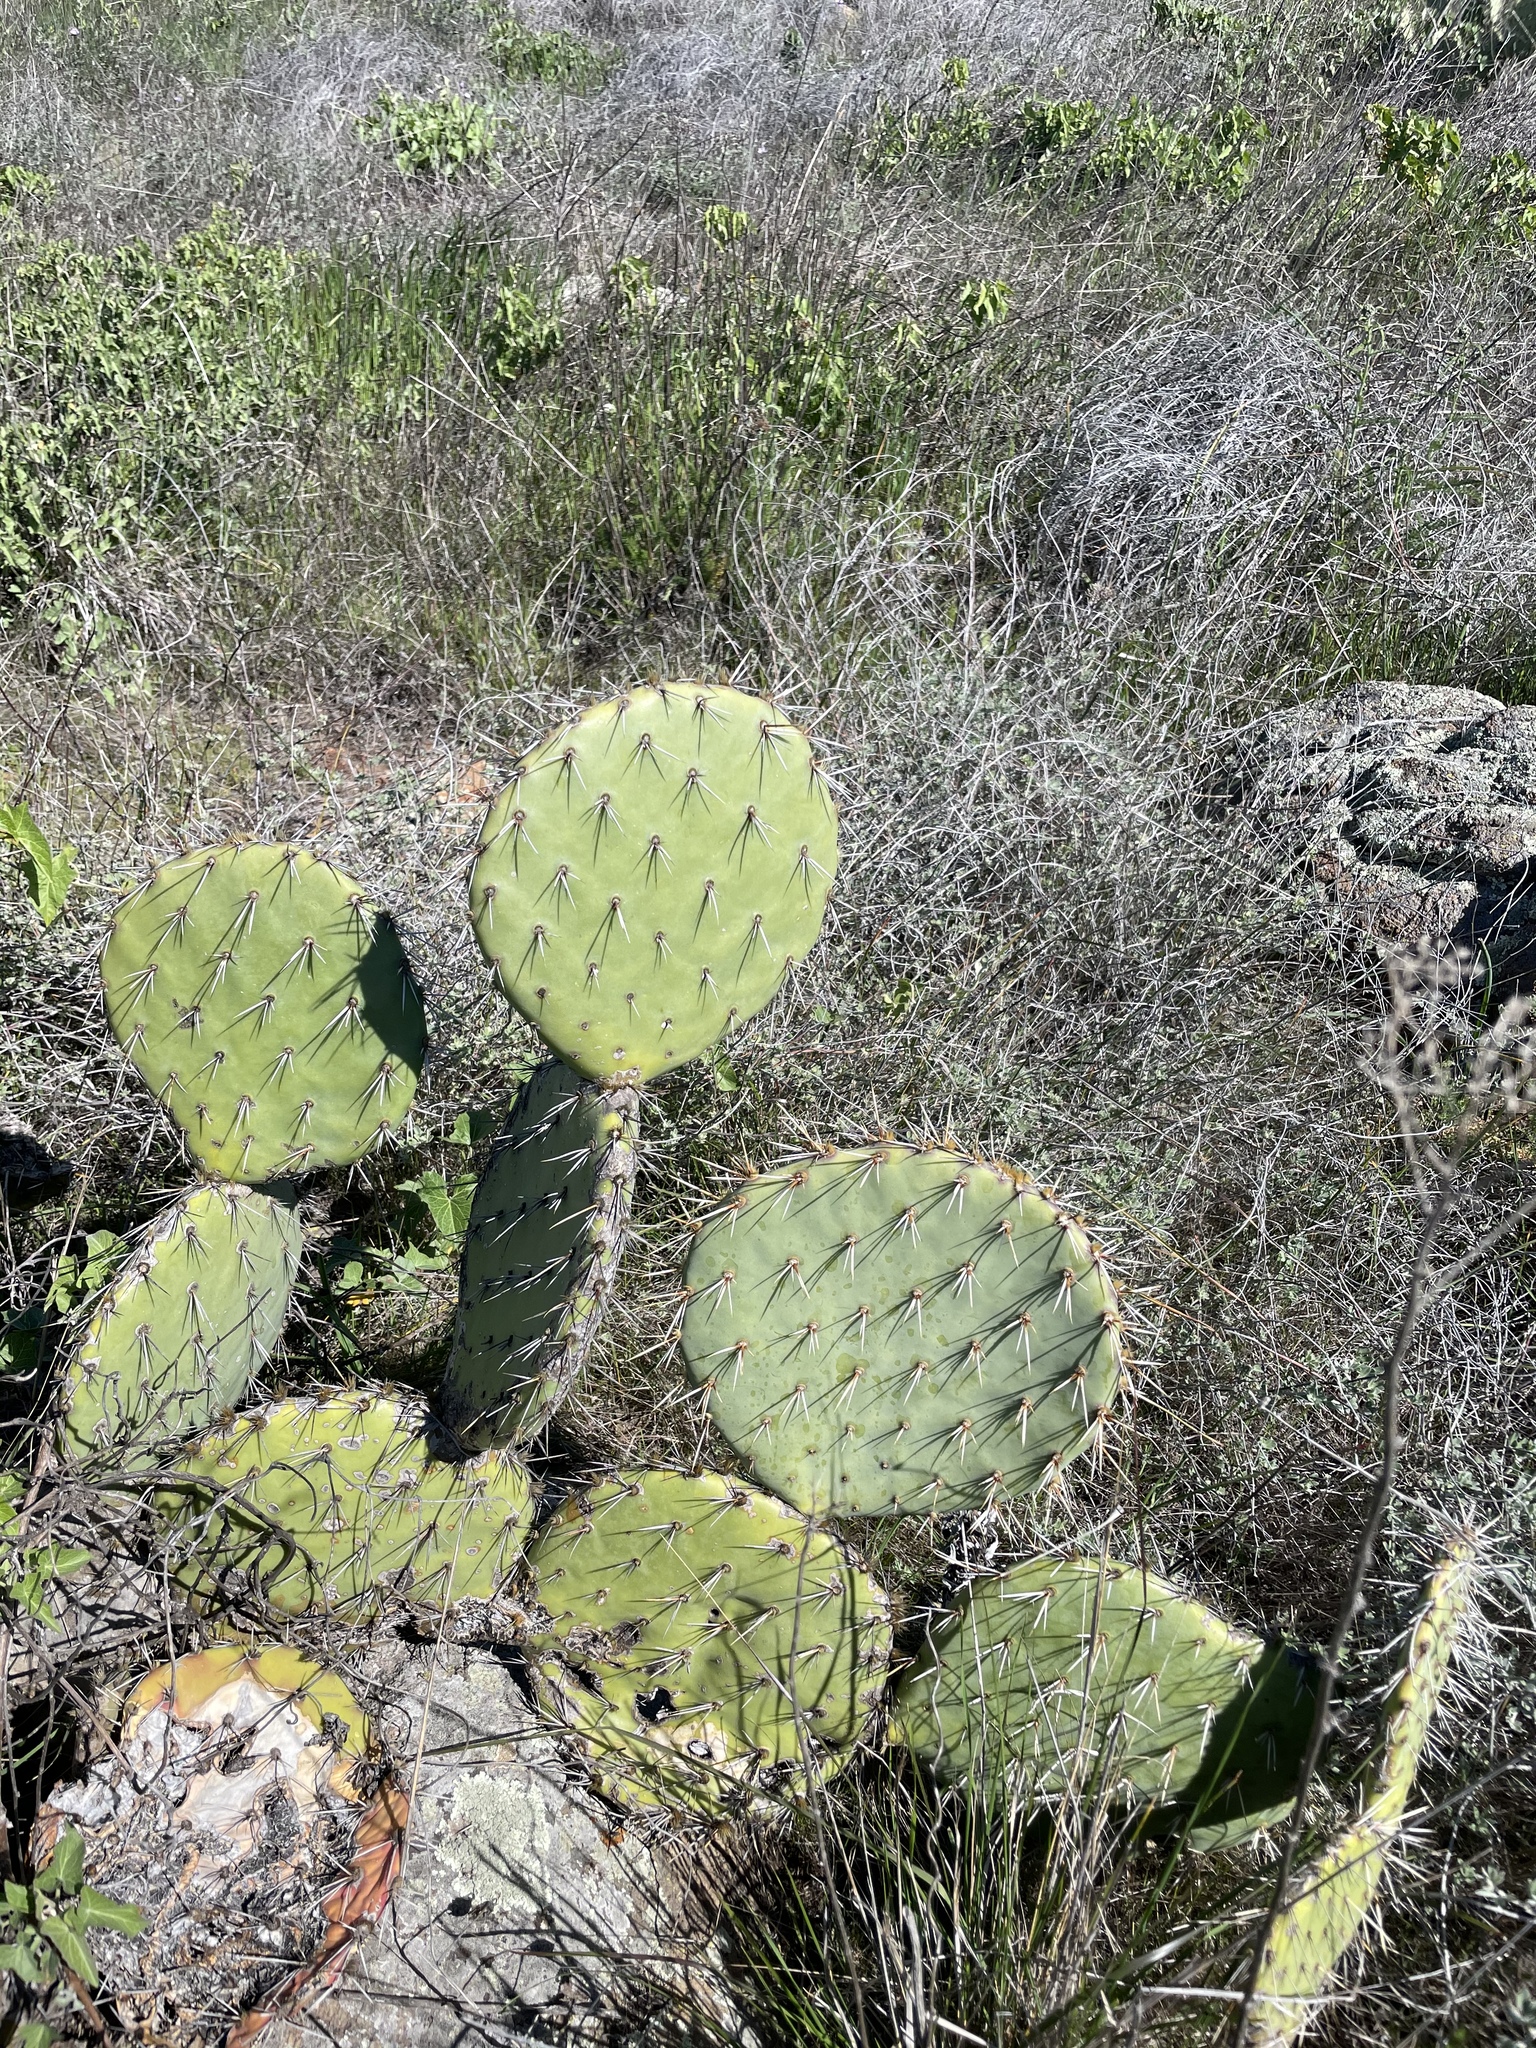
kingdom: Plantae
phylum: Tracheophyta
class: Magnoliopsida
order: Caryophyllales
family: Cactaceae
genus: Opuntia
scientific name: Opuntia oricola
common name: Chaparral prickly-pear
